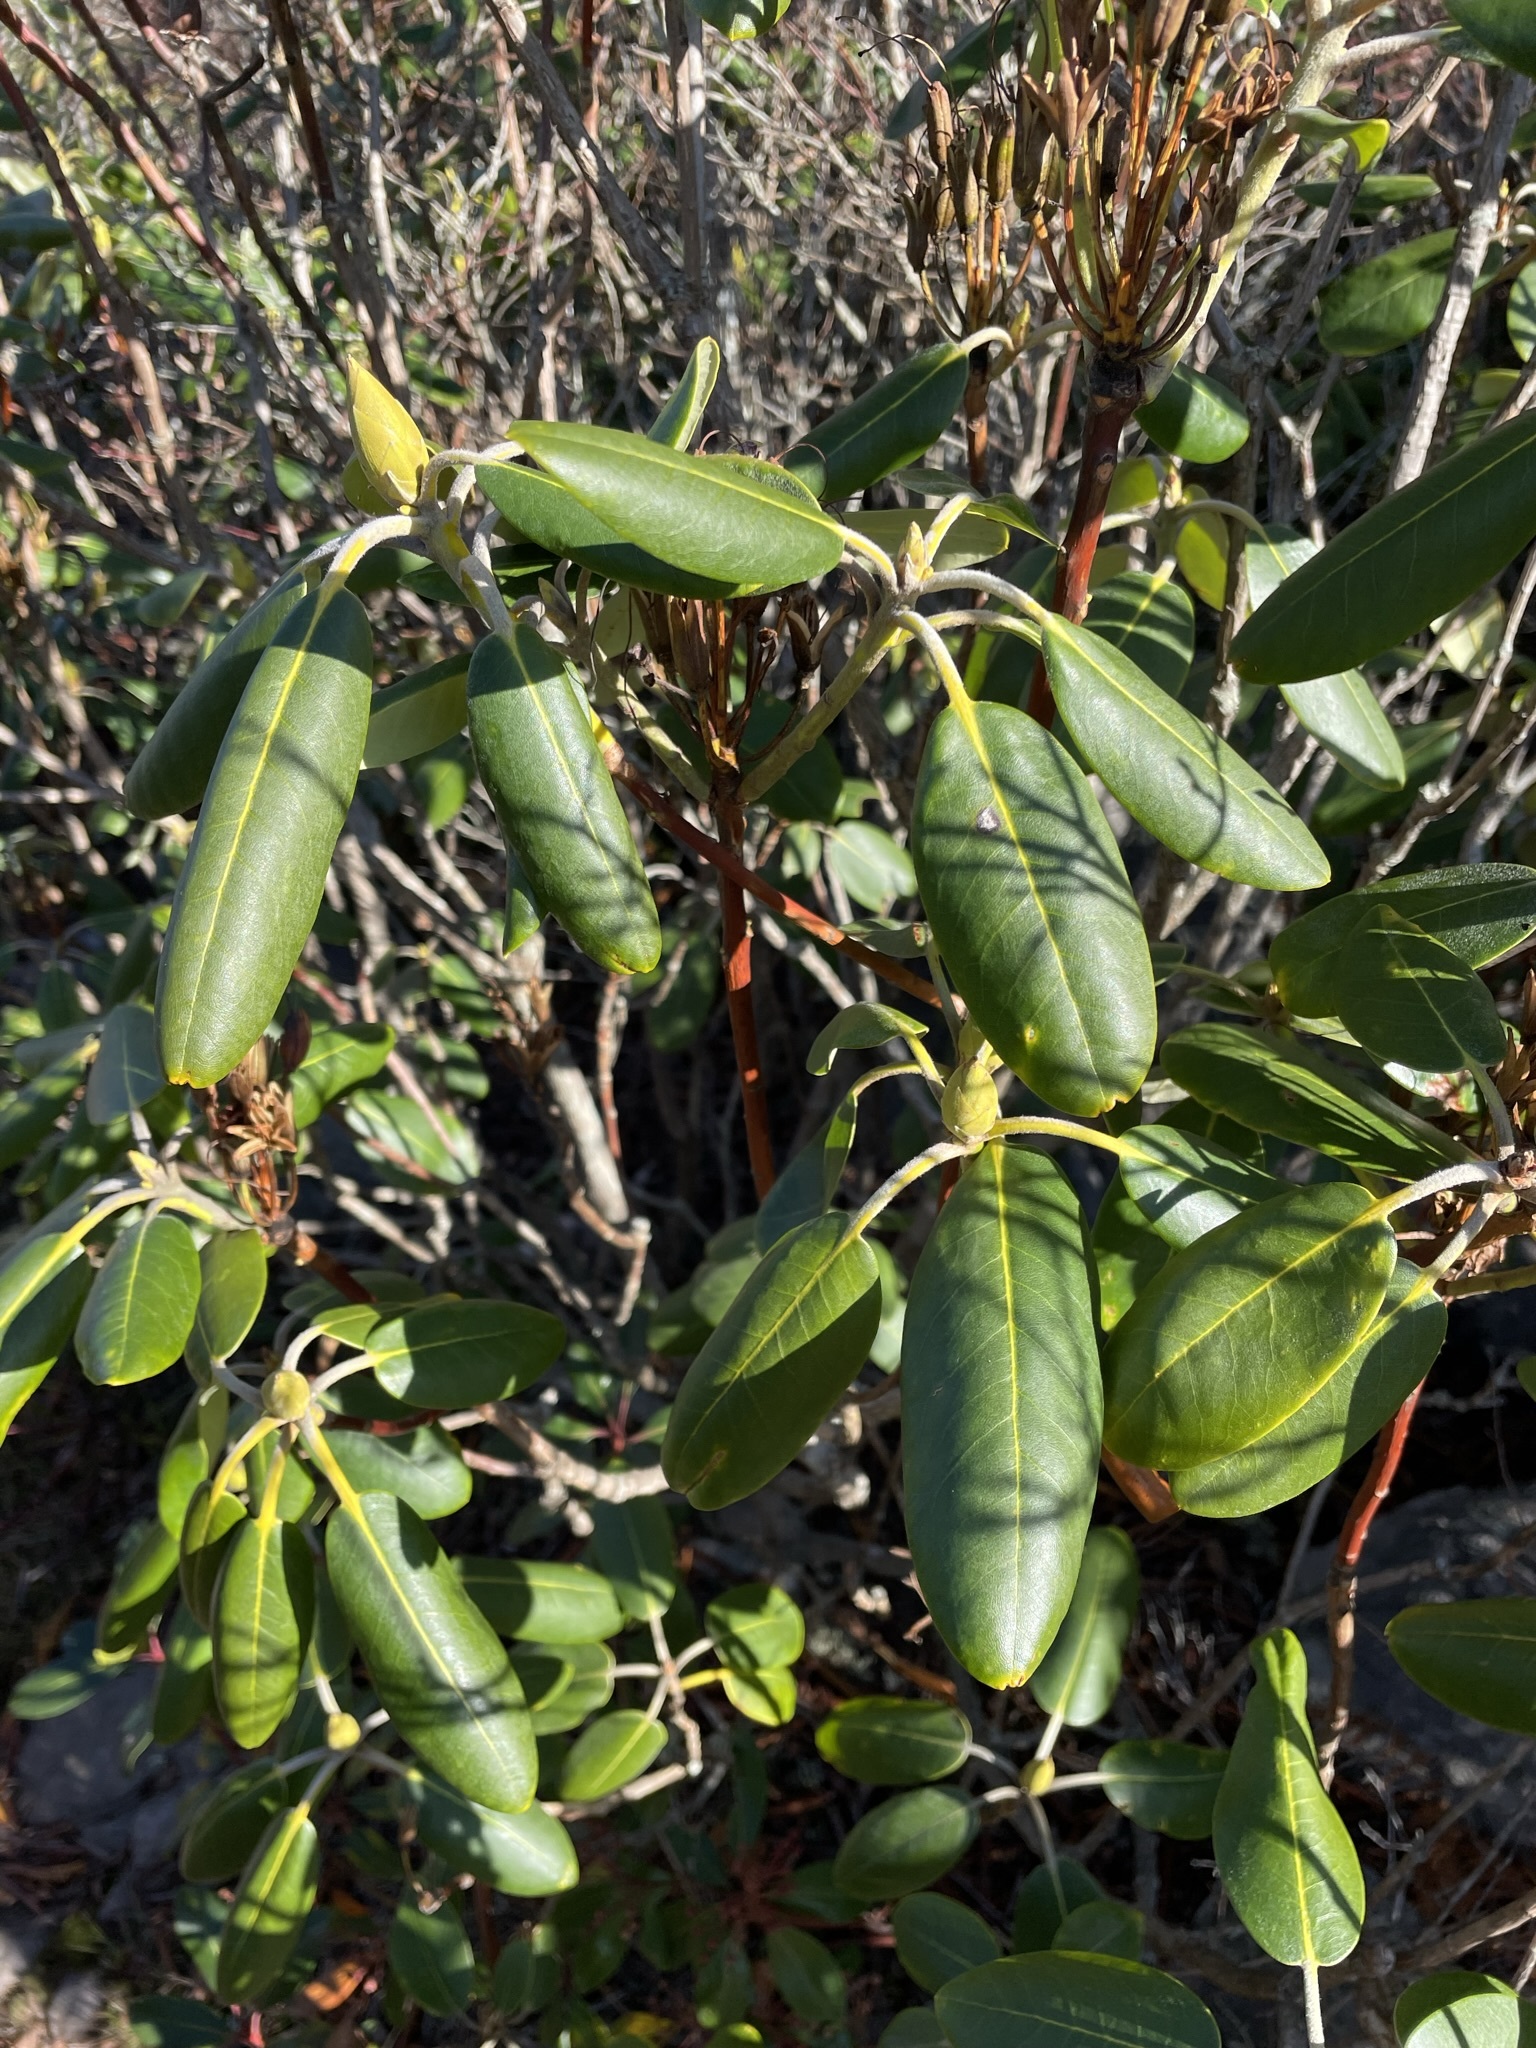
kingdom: Plantae
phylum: Tracheophyta
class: Magnoliopsida
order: Ericales
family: Ericaceae
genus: Rhododendron
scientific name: Rhododendron catawbiense
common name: Catawba rhododendron
